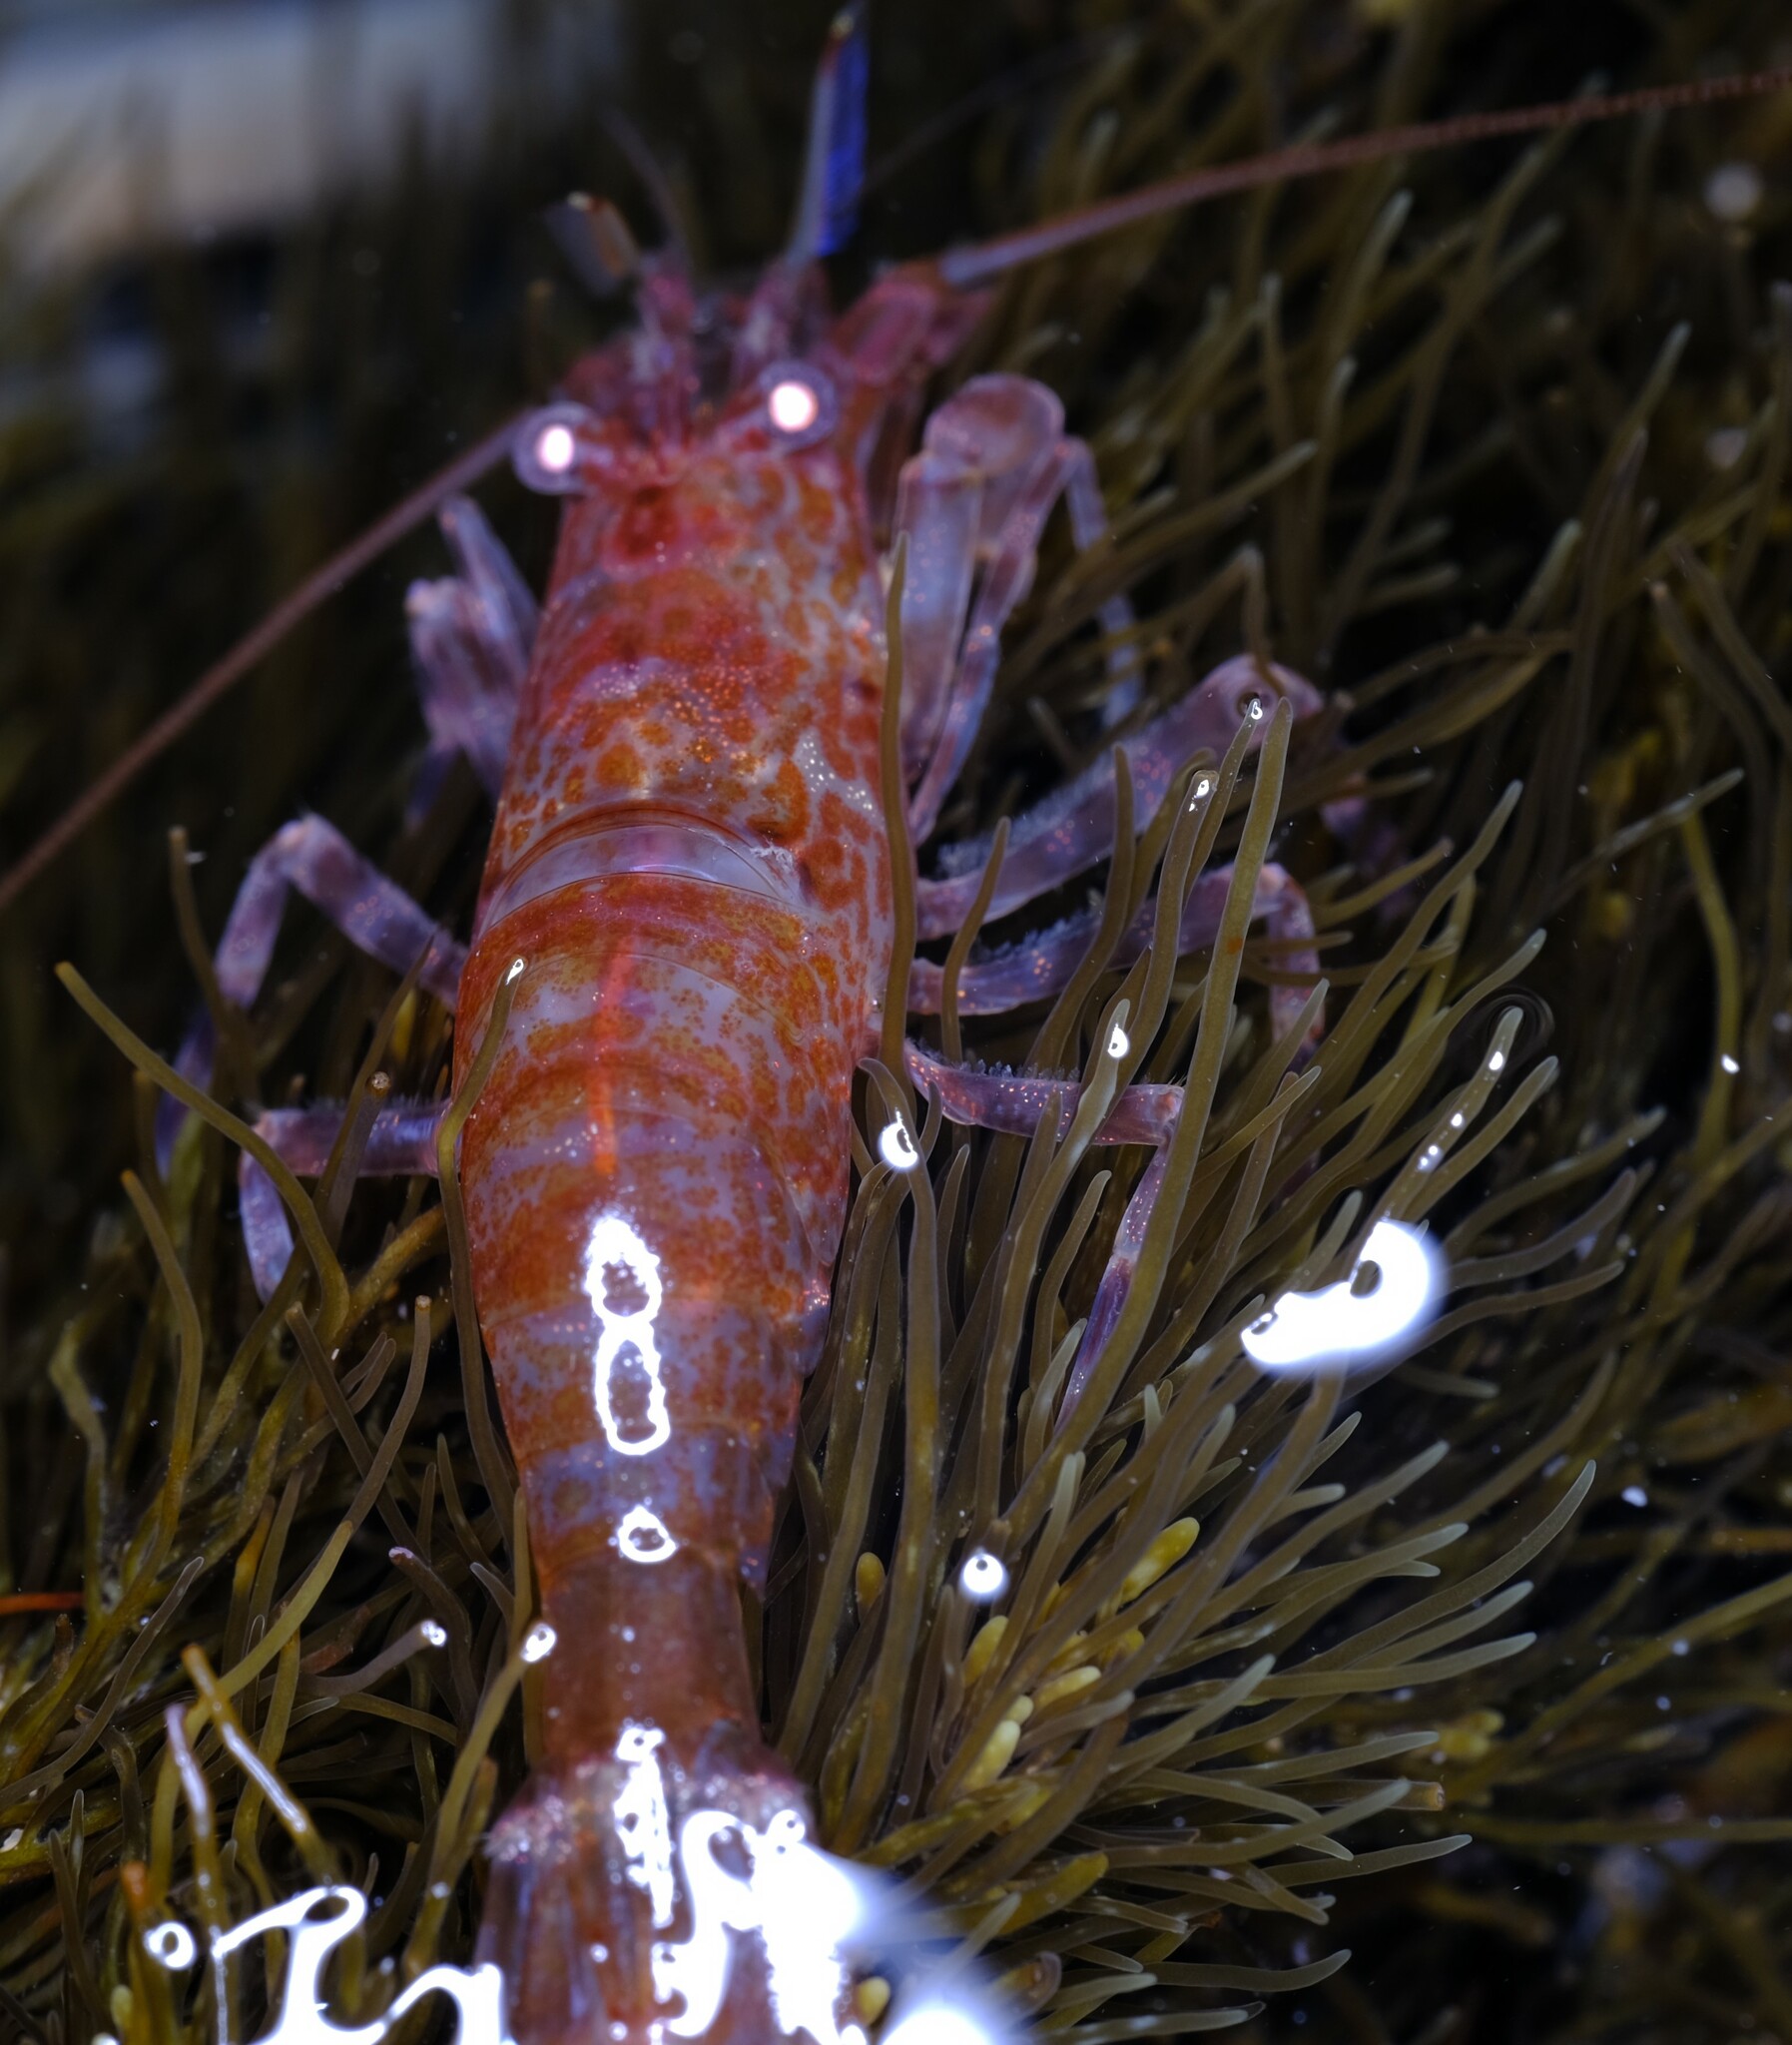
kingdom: Animalia
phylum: Arthropoda
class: Malacostraca
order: Decapoda
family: Hippolytidae
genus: Alope
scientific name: Alope orientalis
